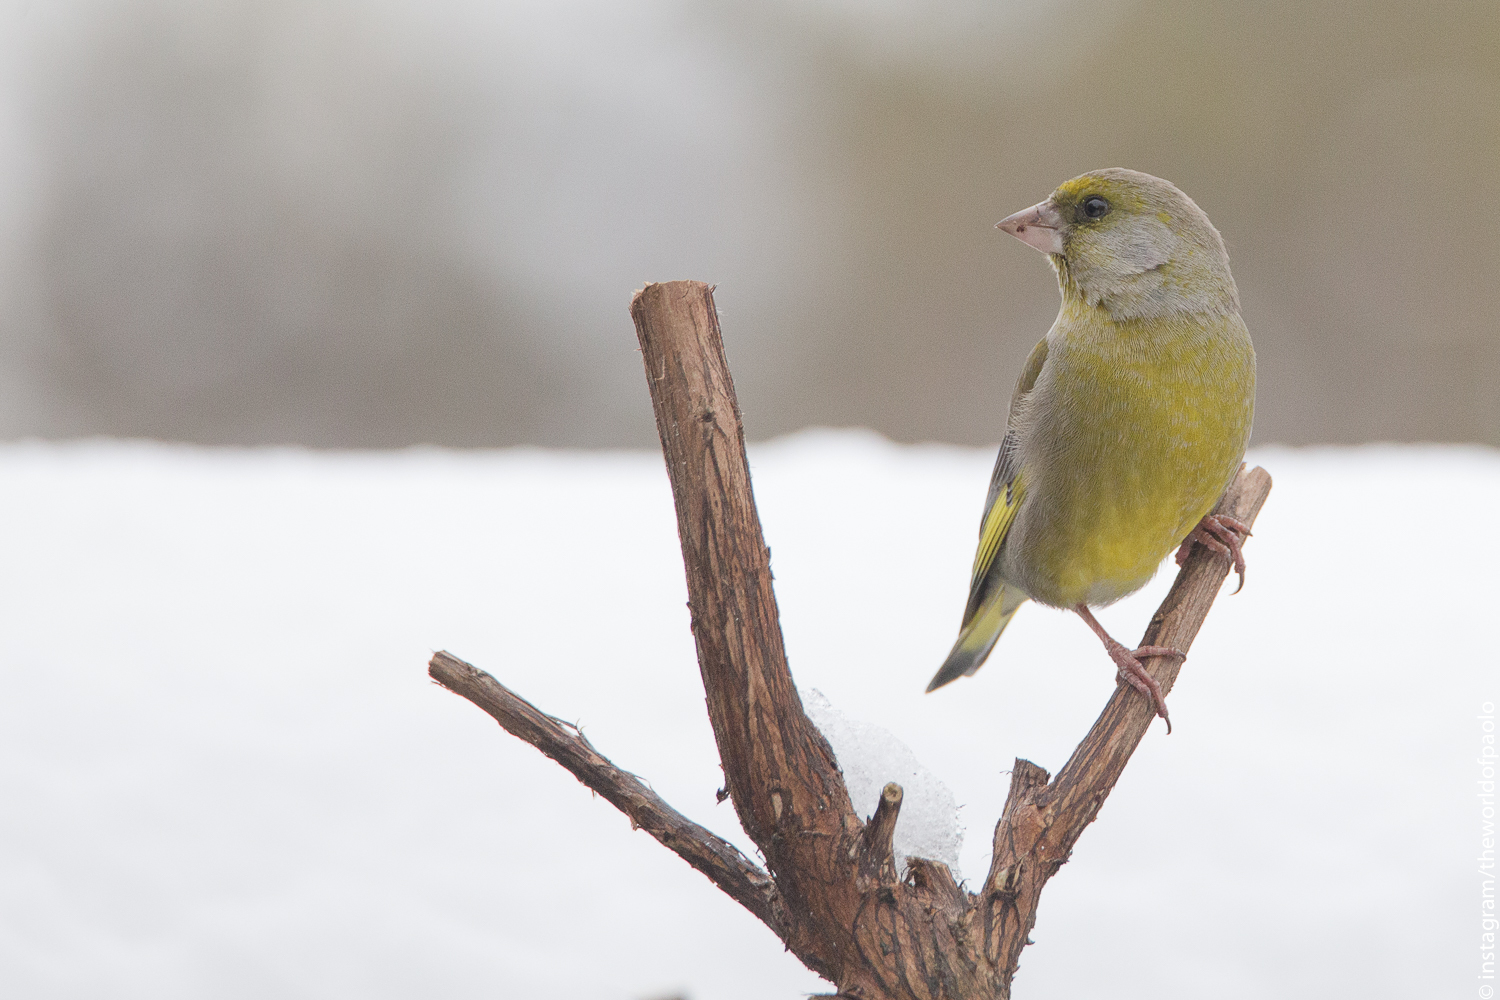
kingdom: Plantae
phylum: Tracheophyta
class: Liliopsida
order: Poales
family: Poaceae
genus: Chloris
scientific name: Chloris chloris
